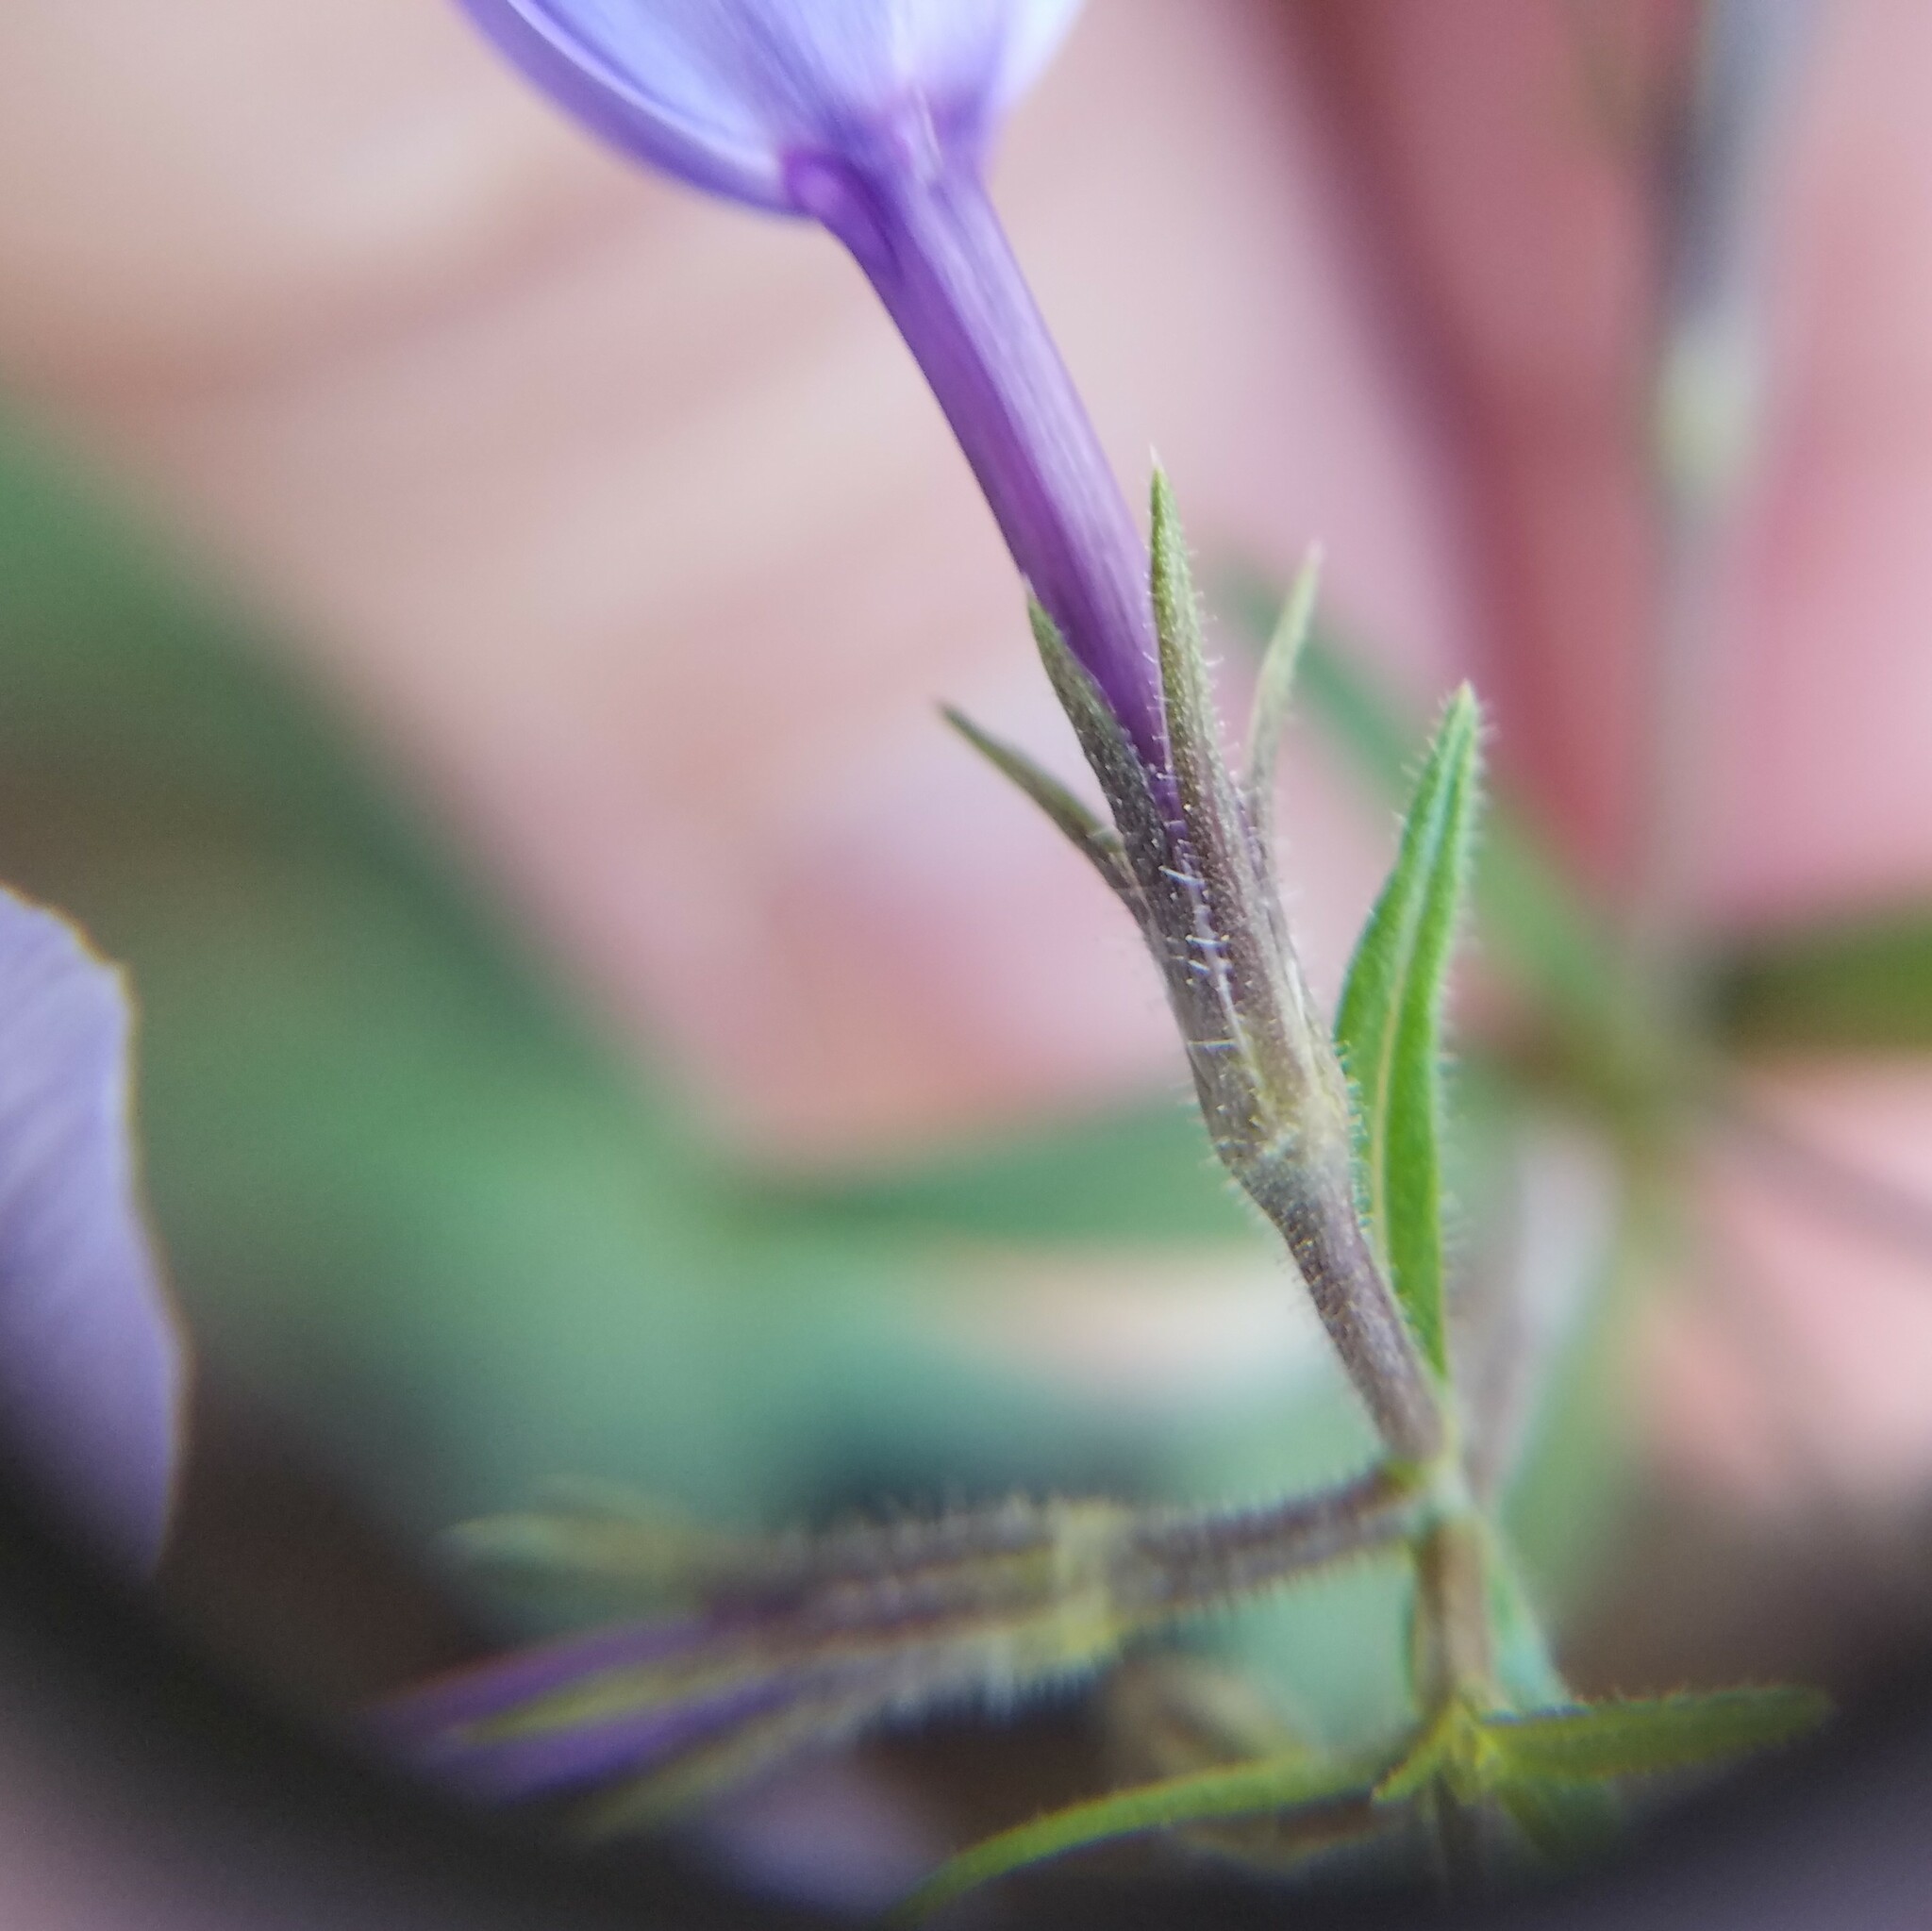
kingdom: Plantae
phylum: Tracheophyta
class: Magnoliopsida
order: Ericales
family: Polemoniaceae
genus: Phlox
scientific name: Phlox divaricata
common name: Blue phlox
